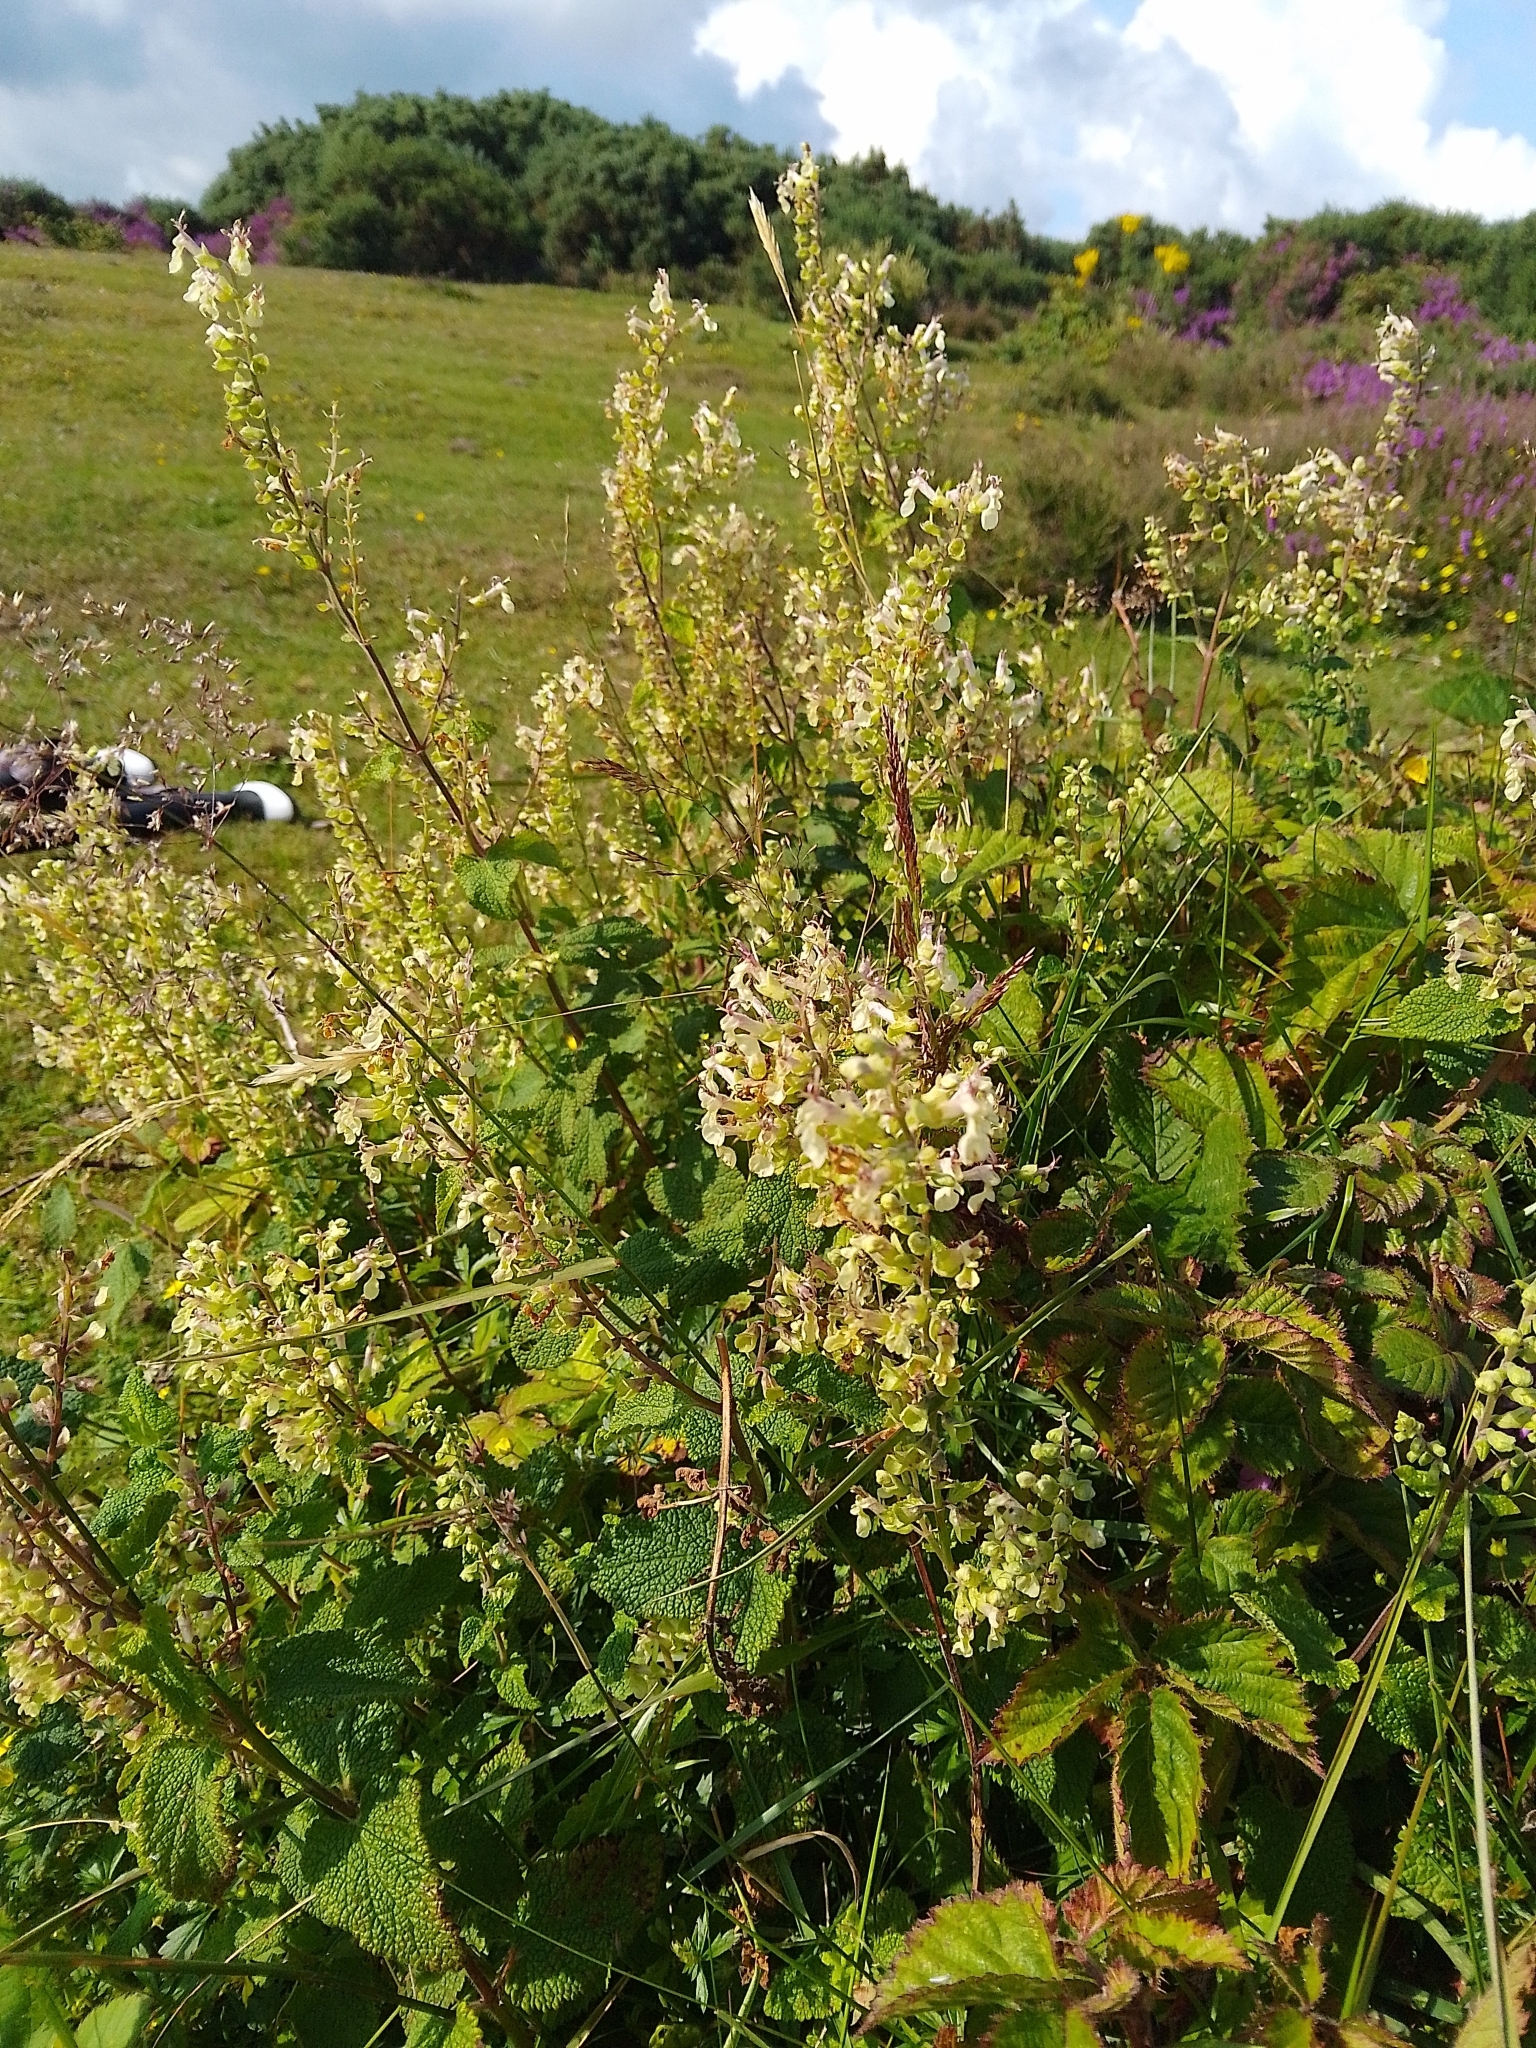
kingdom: Plantae
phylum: Tracheophyta
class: Magnoliopsida
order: Lamiales
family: Lamiaceae
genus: Teucrium
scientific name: Teucrium scorodonia
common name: Woodland germander
